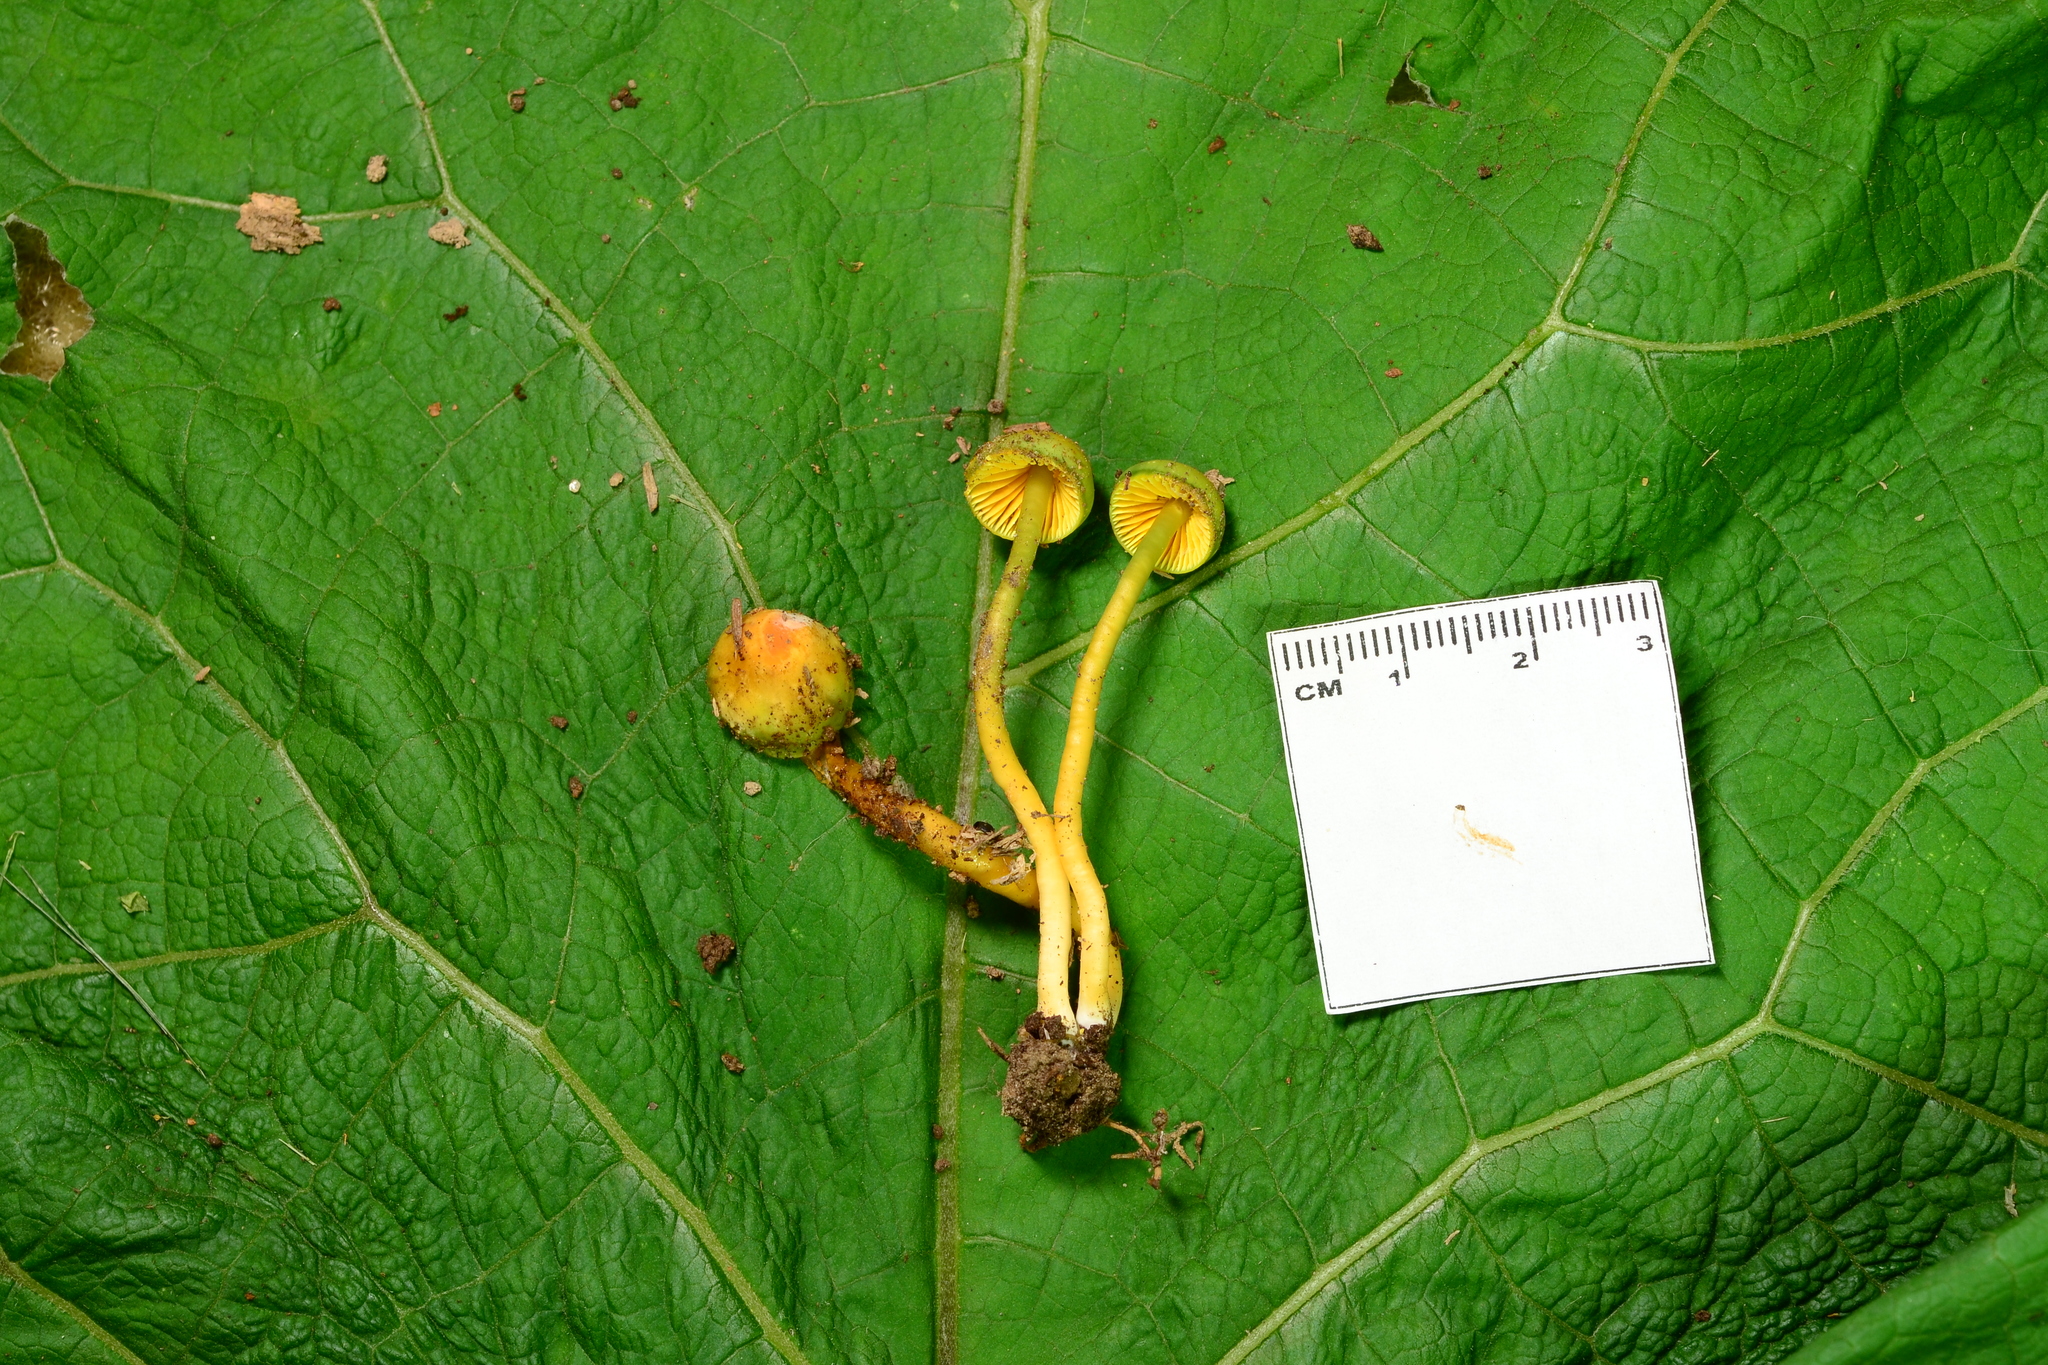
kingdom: Fungi
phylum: Basidiomycota
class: Agaricomycetes
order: Agaricales
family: Hygrophoraceae
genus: Gliophorus
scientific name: Gliophorus psittacinus
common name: Parrot wax-cap
